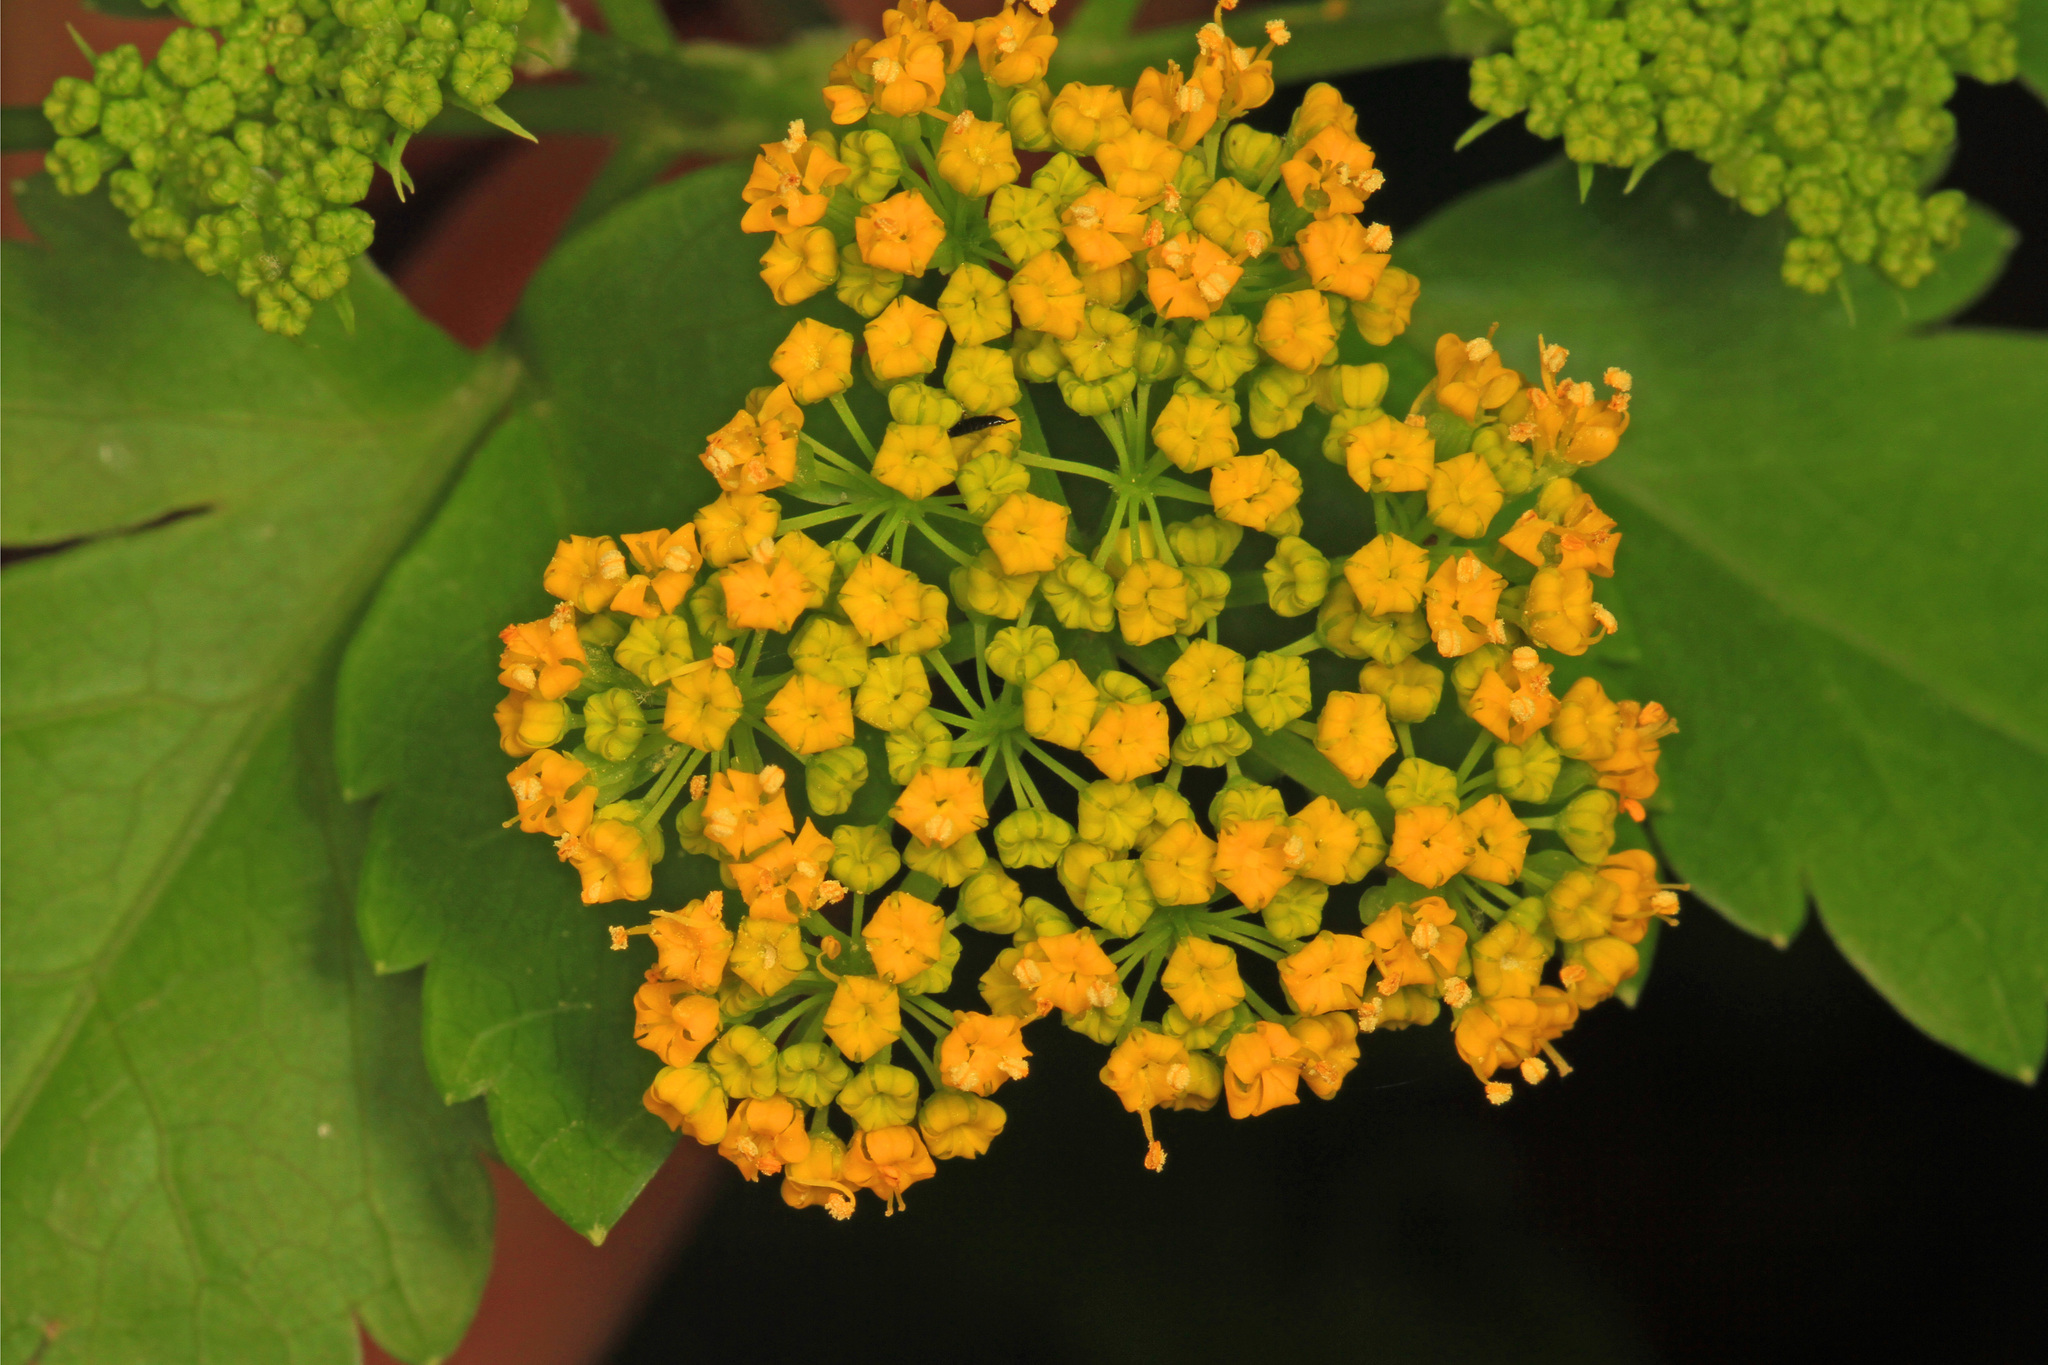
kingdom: Plantae
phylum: Tracheophyta
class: Magnoliopsida
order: Apiales
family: Apiaceae
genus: Zizia
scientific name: Zizia aurea
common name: Golden alexanders
